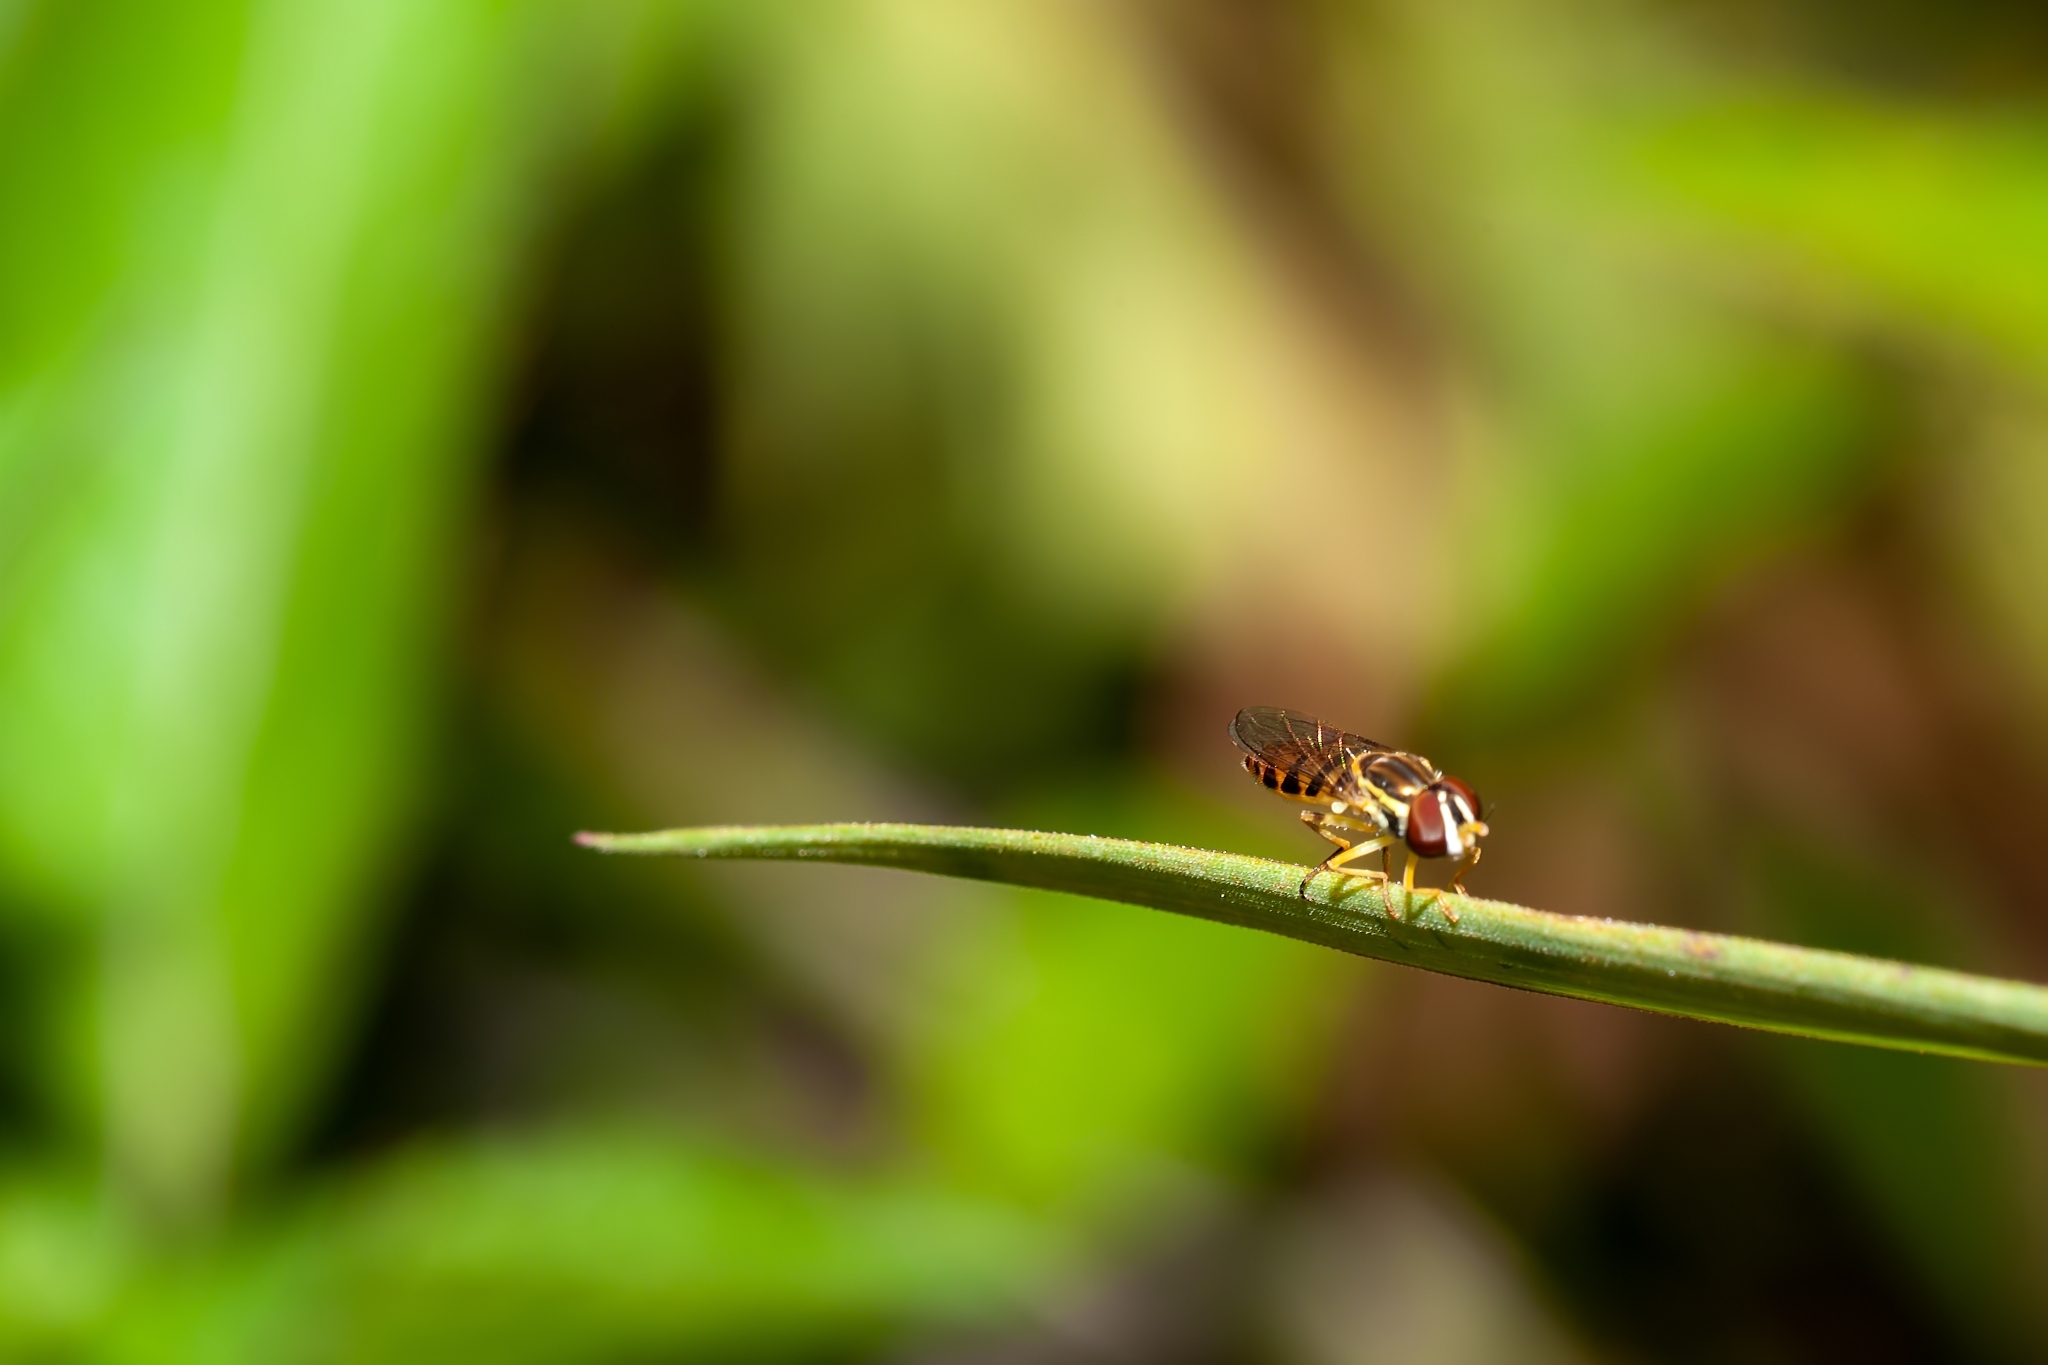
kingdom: Animalia
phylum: Arthropoda
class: Insecta
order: Diptera
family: Syrphidae
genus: Toxomerus
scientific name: Toxomerus floralis
